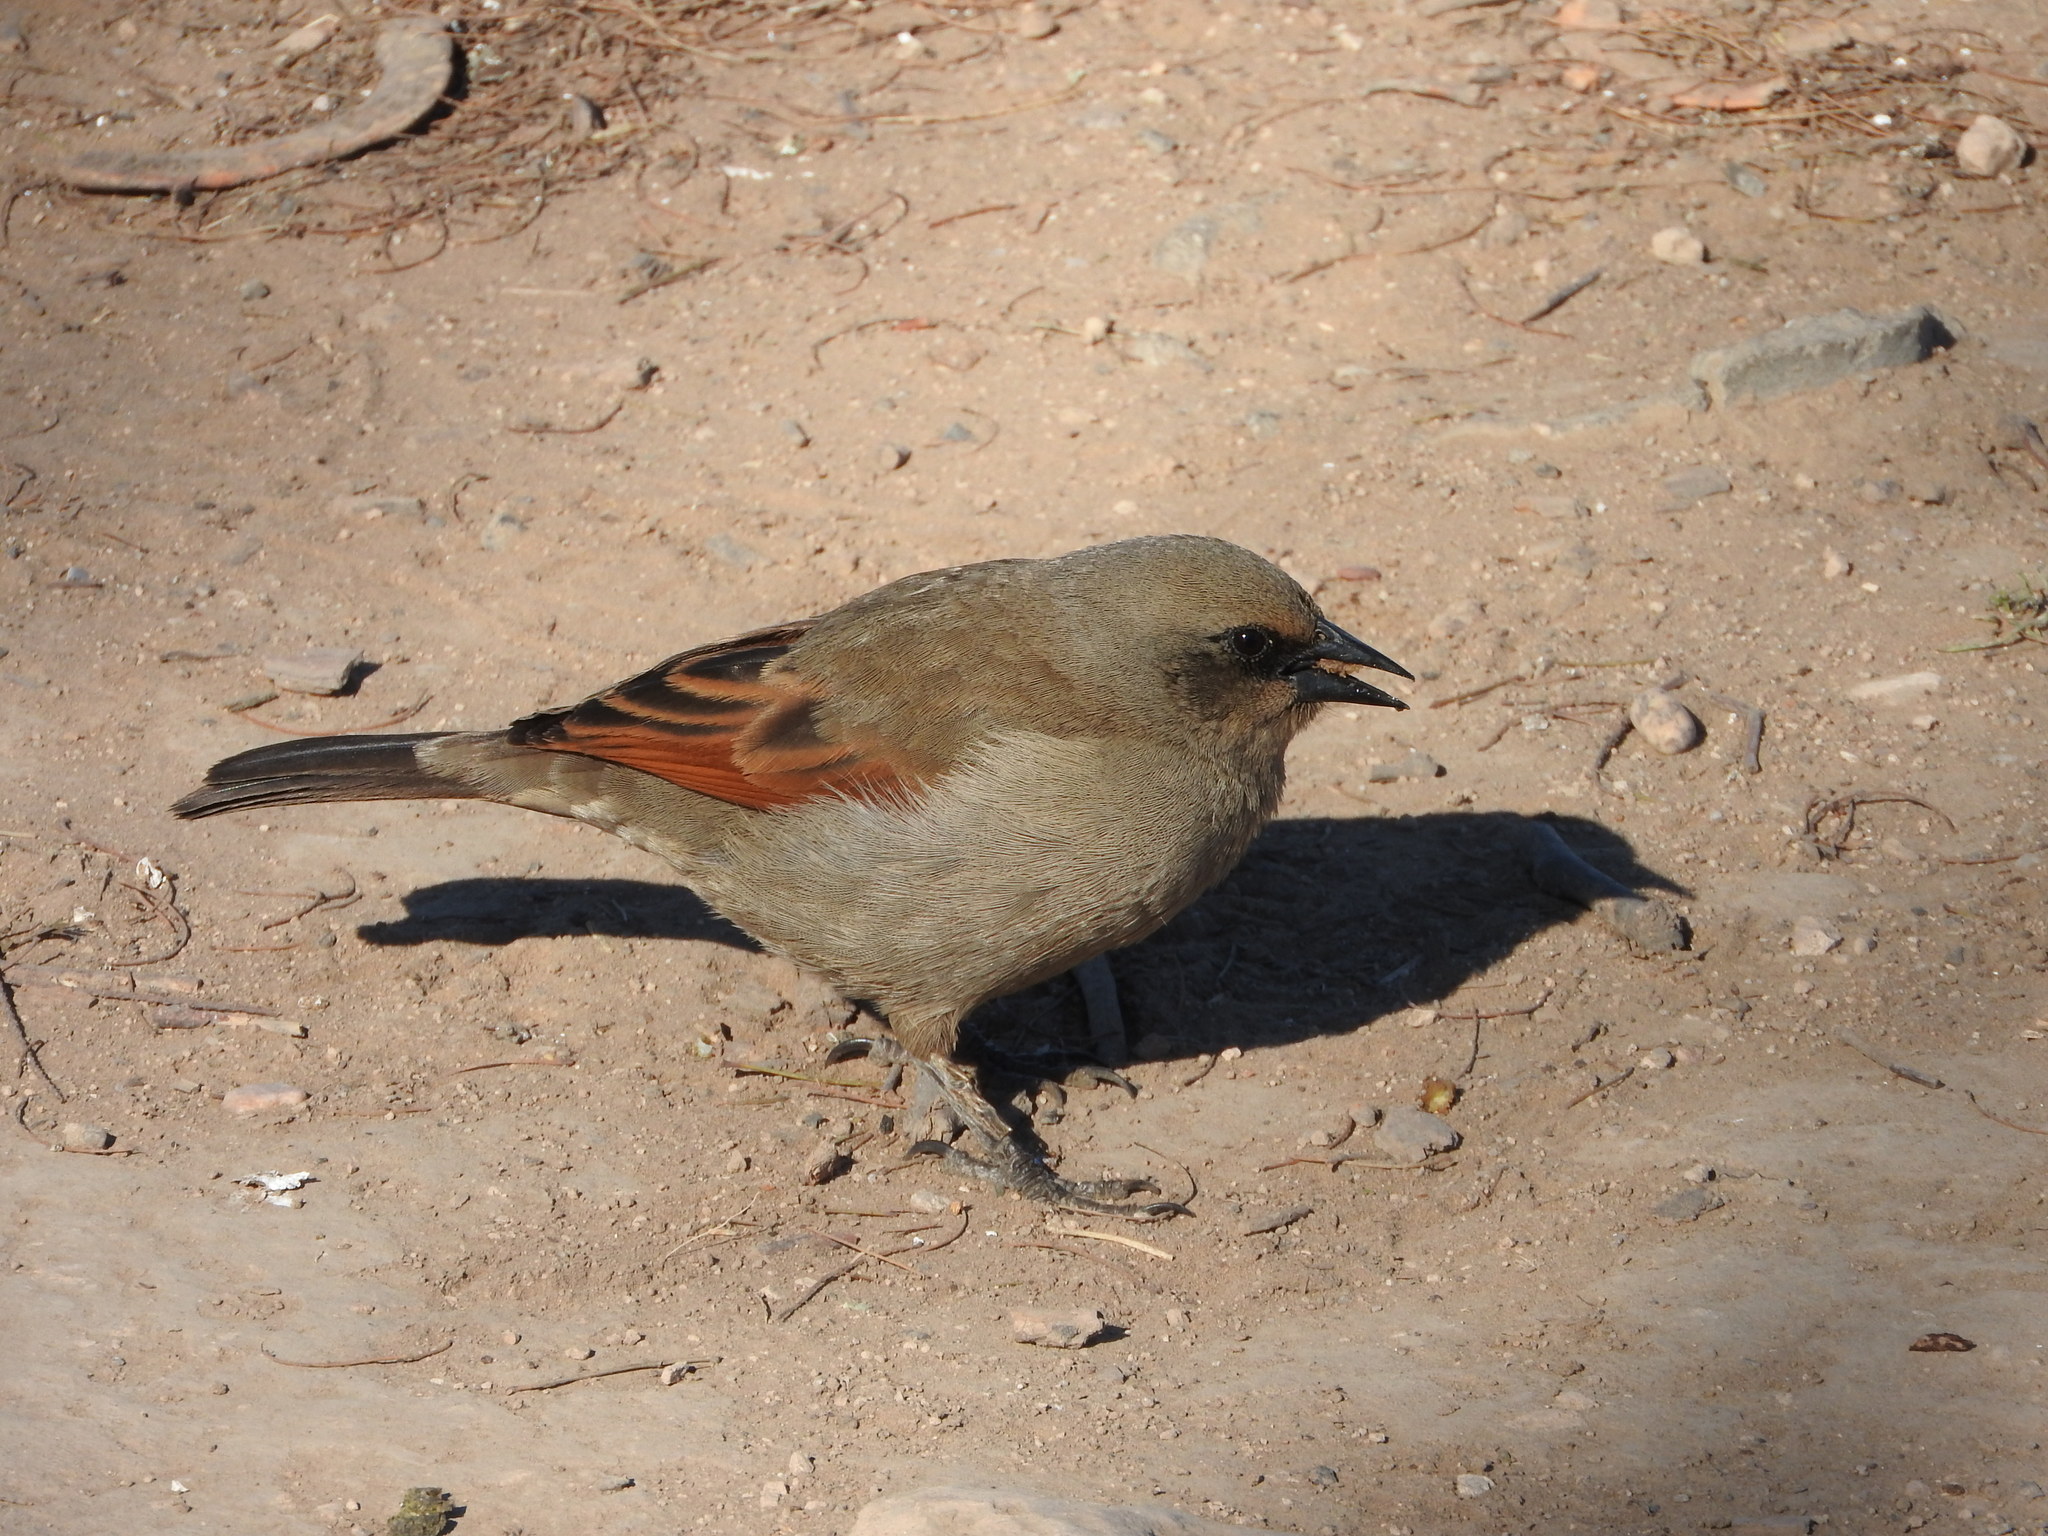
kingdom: Animalia
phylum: Chordata
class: Aves
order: Passeriformes
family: Icteridae
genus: Agelaioides
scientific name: Agelaioides badius
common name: Baywing
